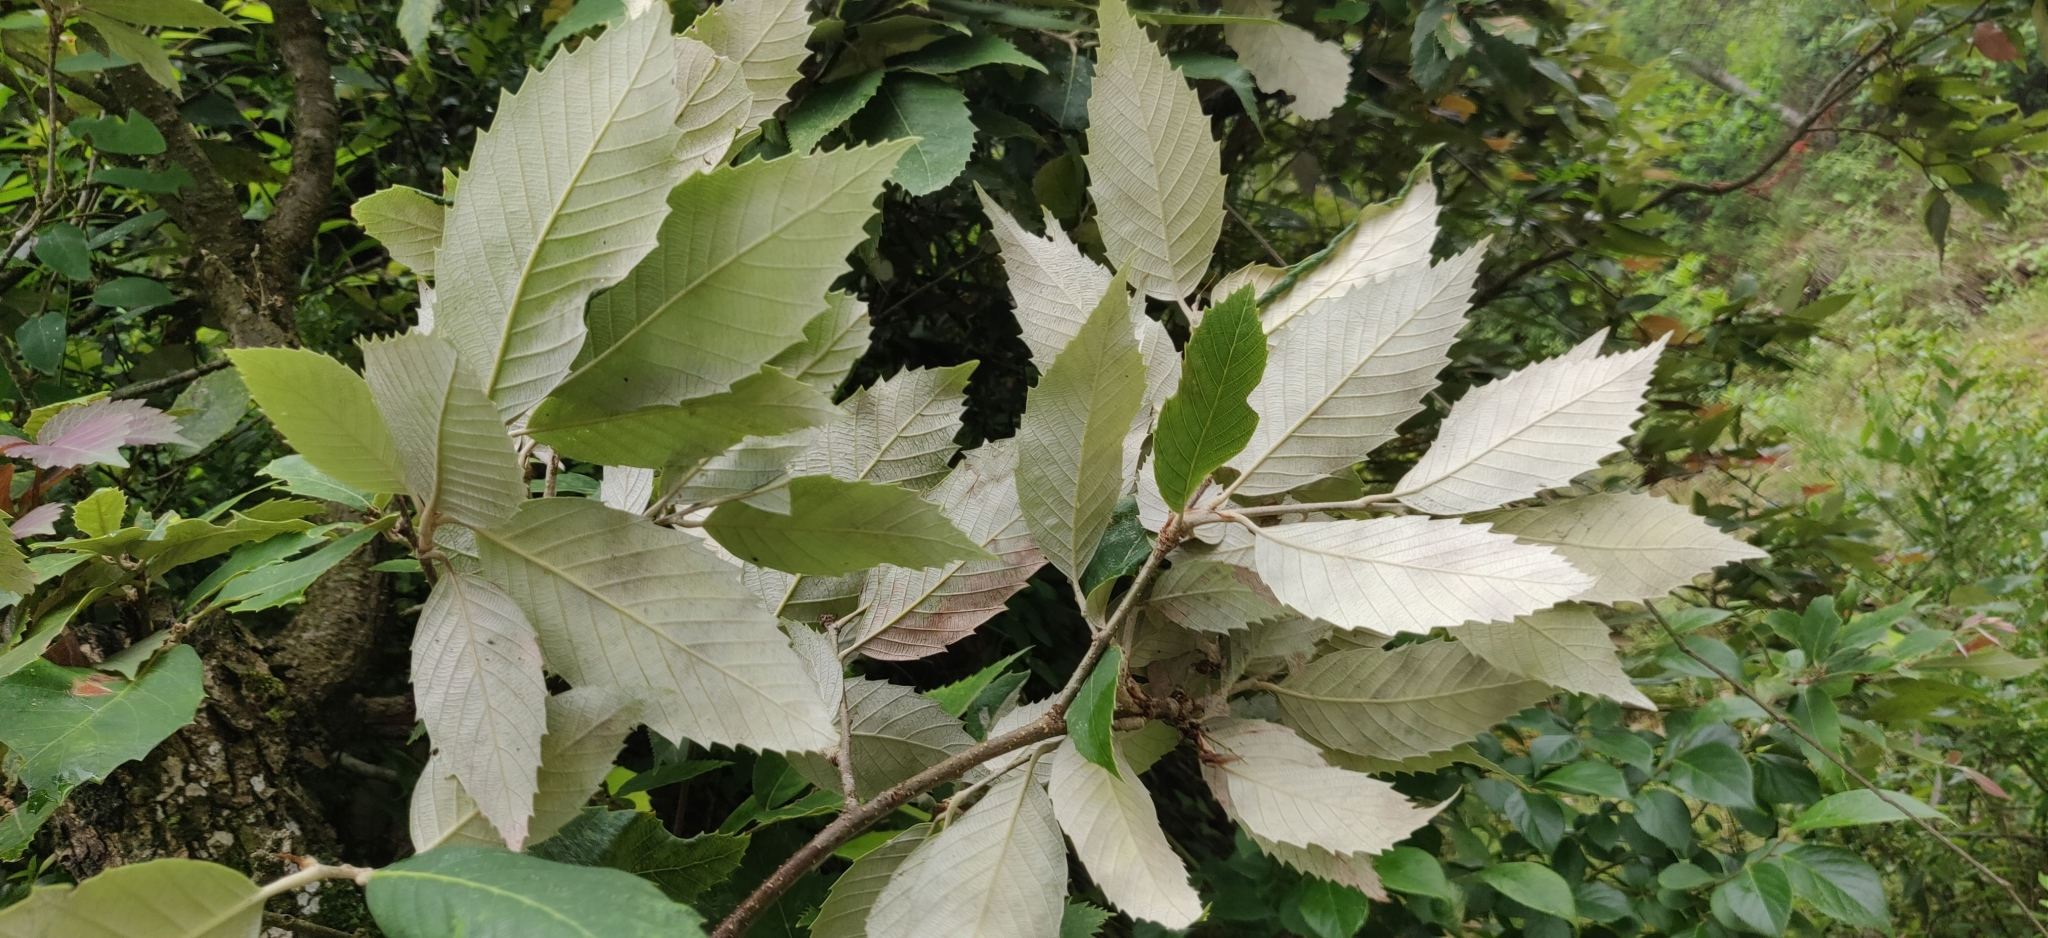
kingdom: Plantae
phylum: Tracheophyta
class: Magnoliopsida
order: Fagales
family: Fagaceae
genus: Quercus
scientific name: Quercus leucotrichophora
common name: Banj oak
